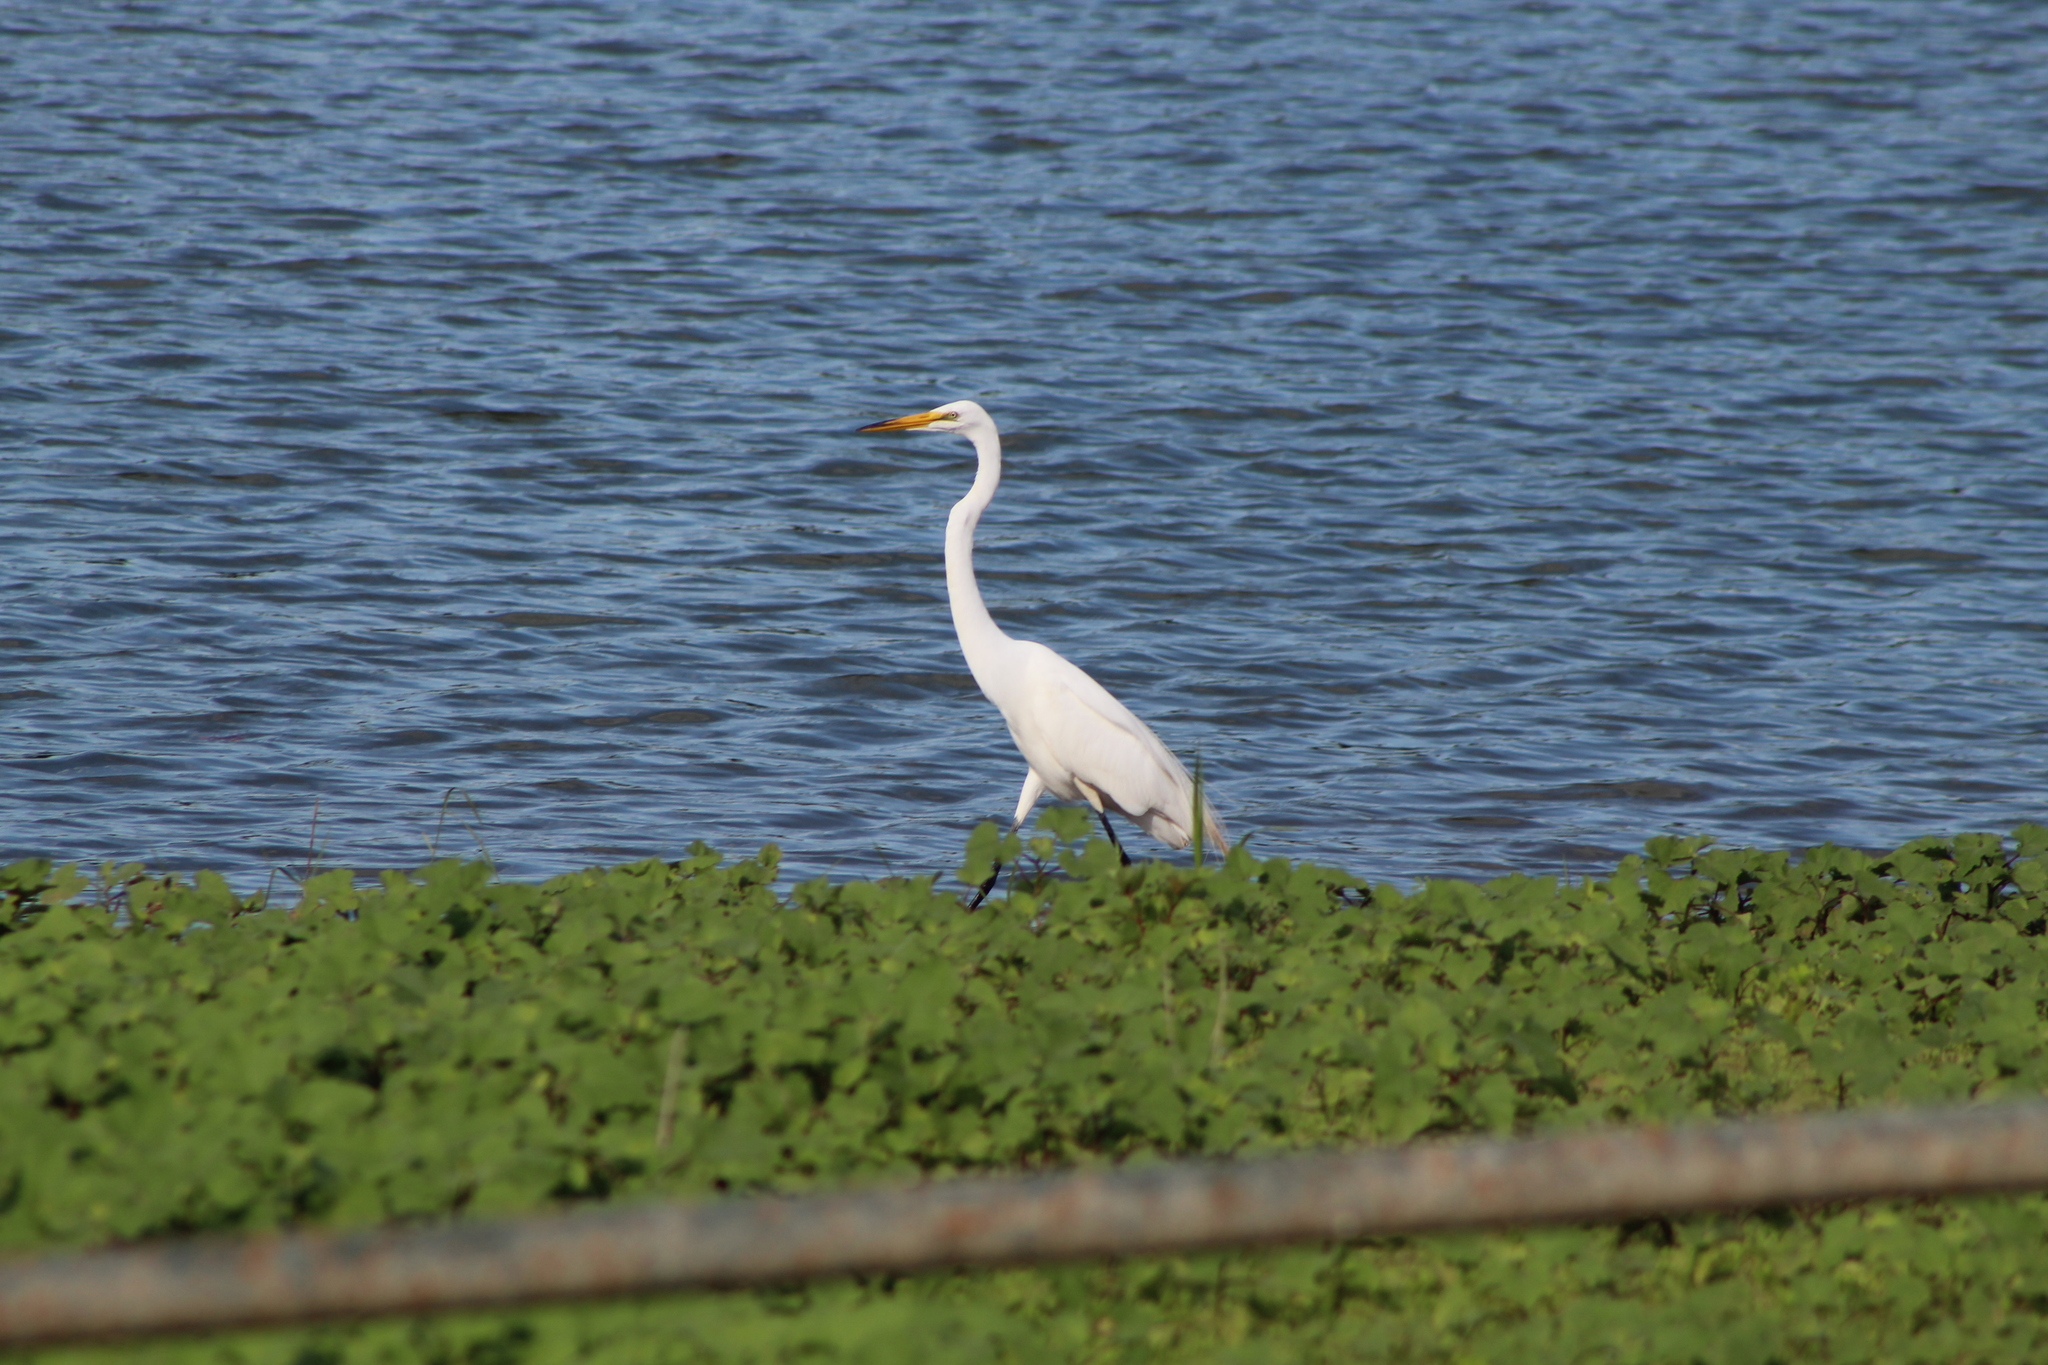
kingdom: Animalia
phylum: Chordata
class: Aves
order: Pelecaniformes
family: Ardeidae
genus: Ardea
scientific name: Ardea alba
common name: Great egret
